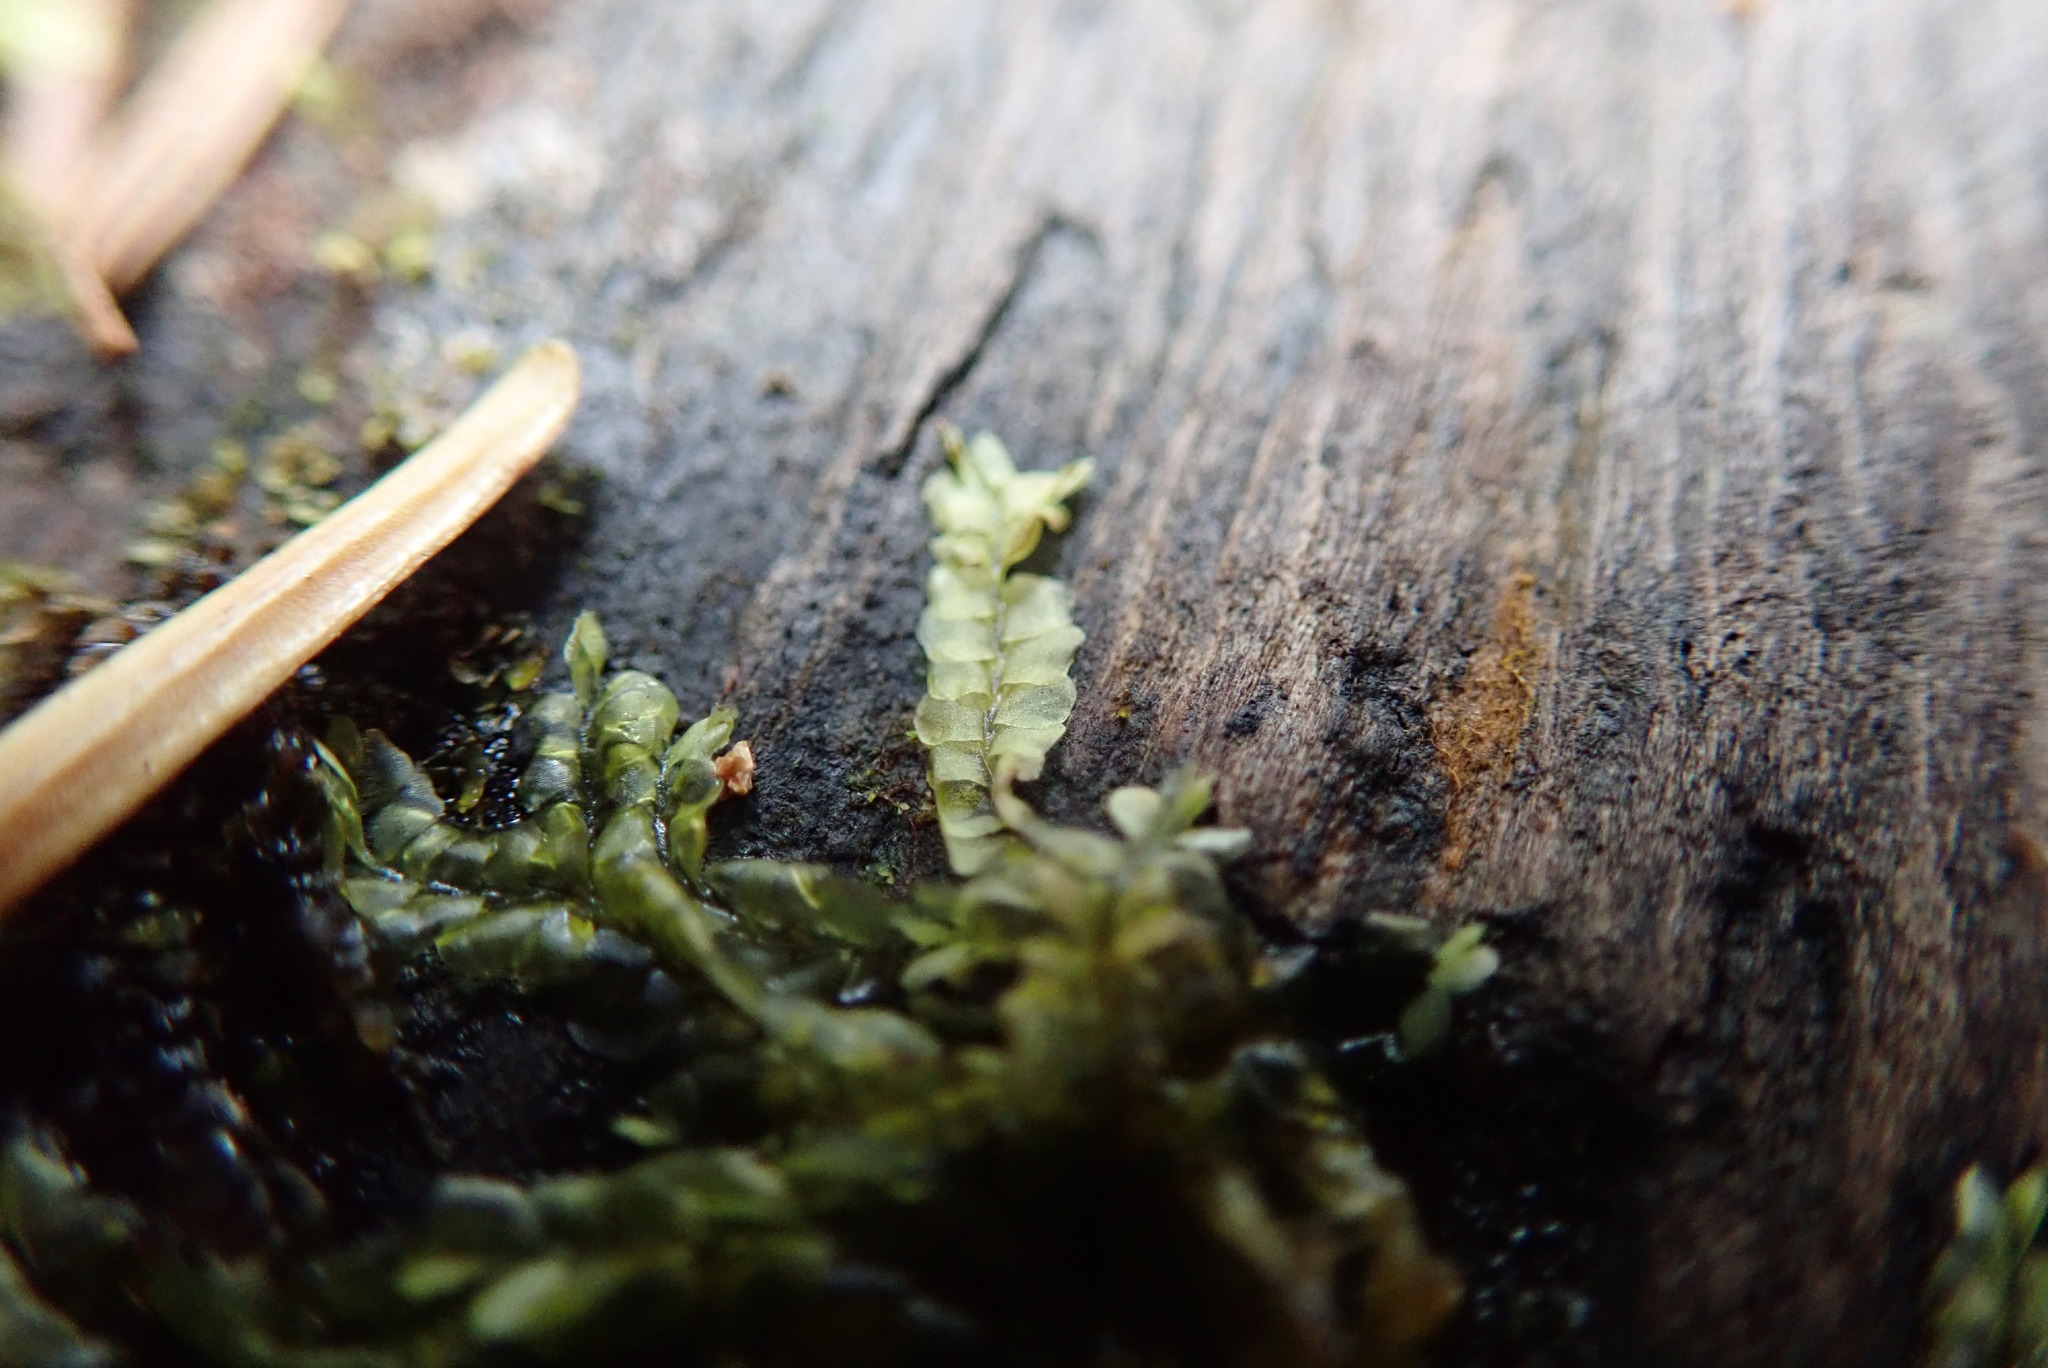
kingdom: Plantae
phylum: Marchantiophyta
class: Jungermanniopsida
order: Jungermanniales
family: Lophocoleaceae
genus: Lophocolea
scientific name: Lophocolea heterophylla
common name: Variable-leaved crestwort
